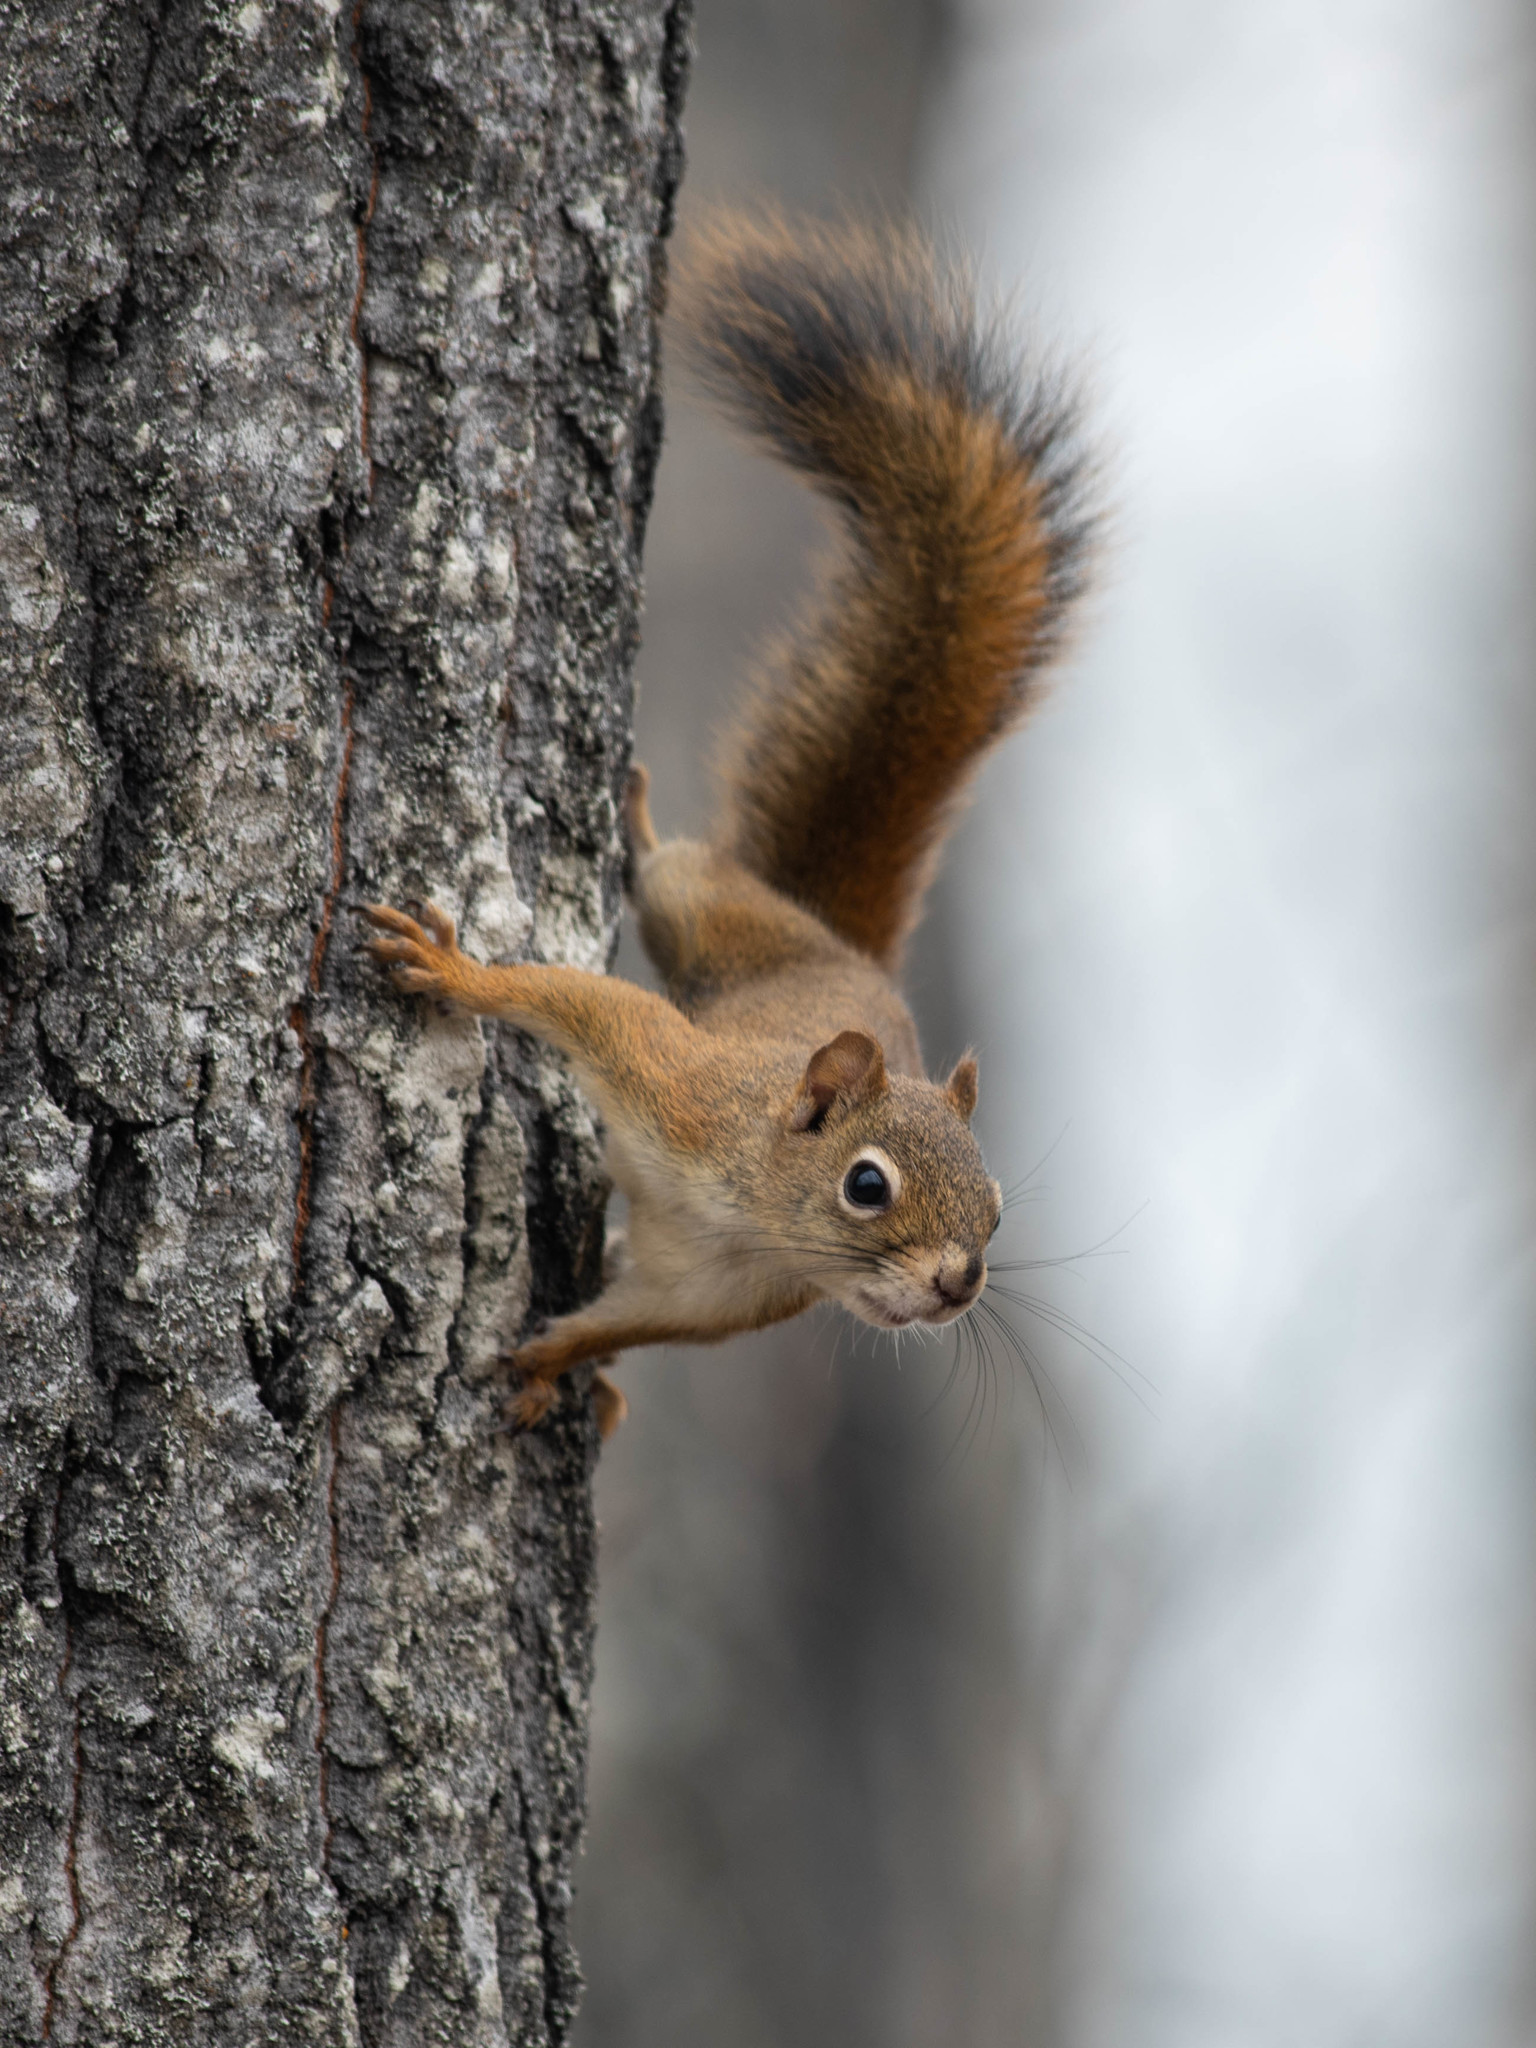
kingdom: Animalia
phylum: Chordata
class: Mammalia
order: Rodentia
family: Sciuridae
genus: Tamiasciurus
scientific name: Tamiasciurus hudsonicus
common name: Red squirrel
